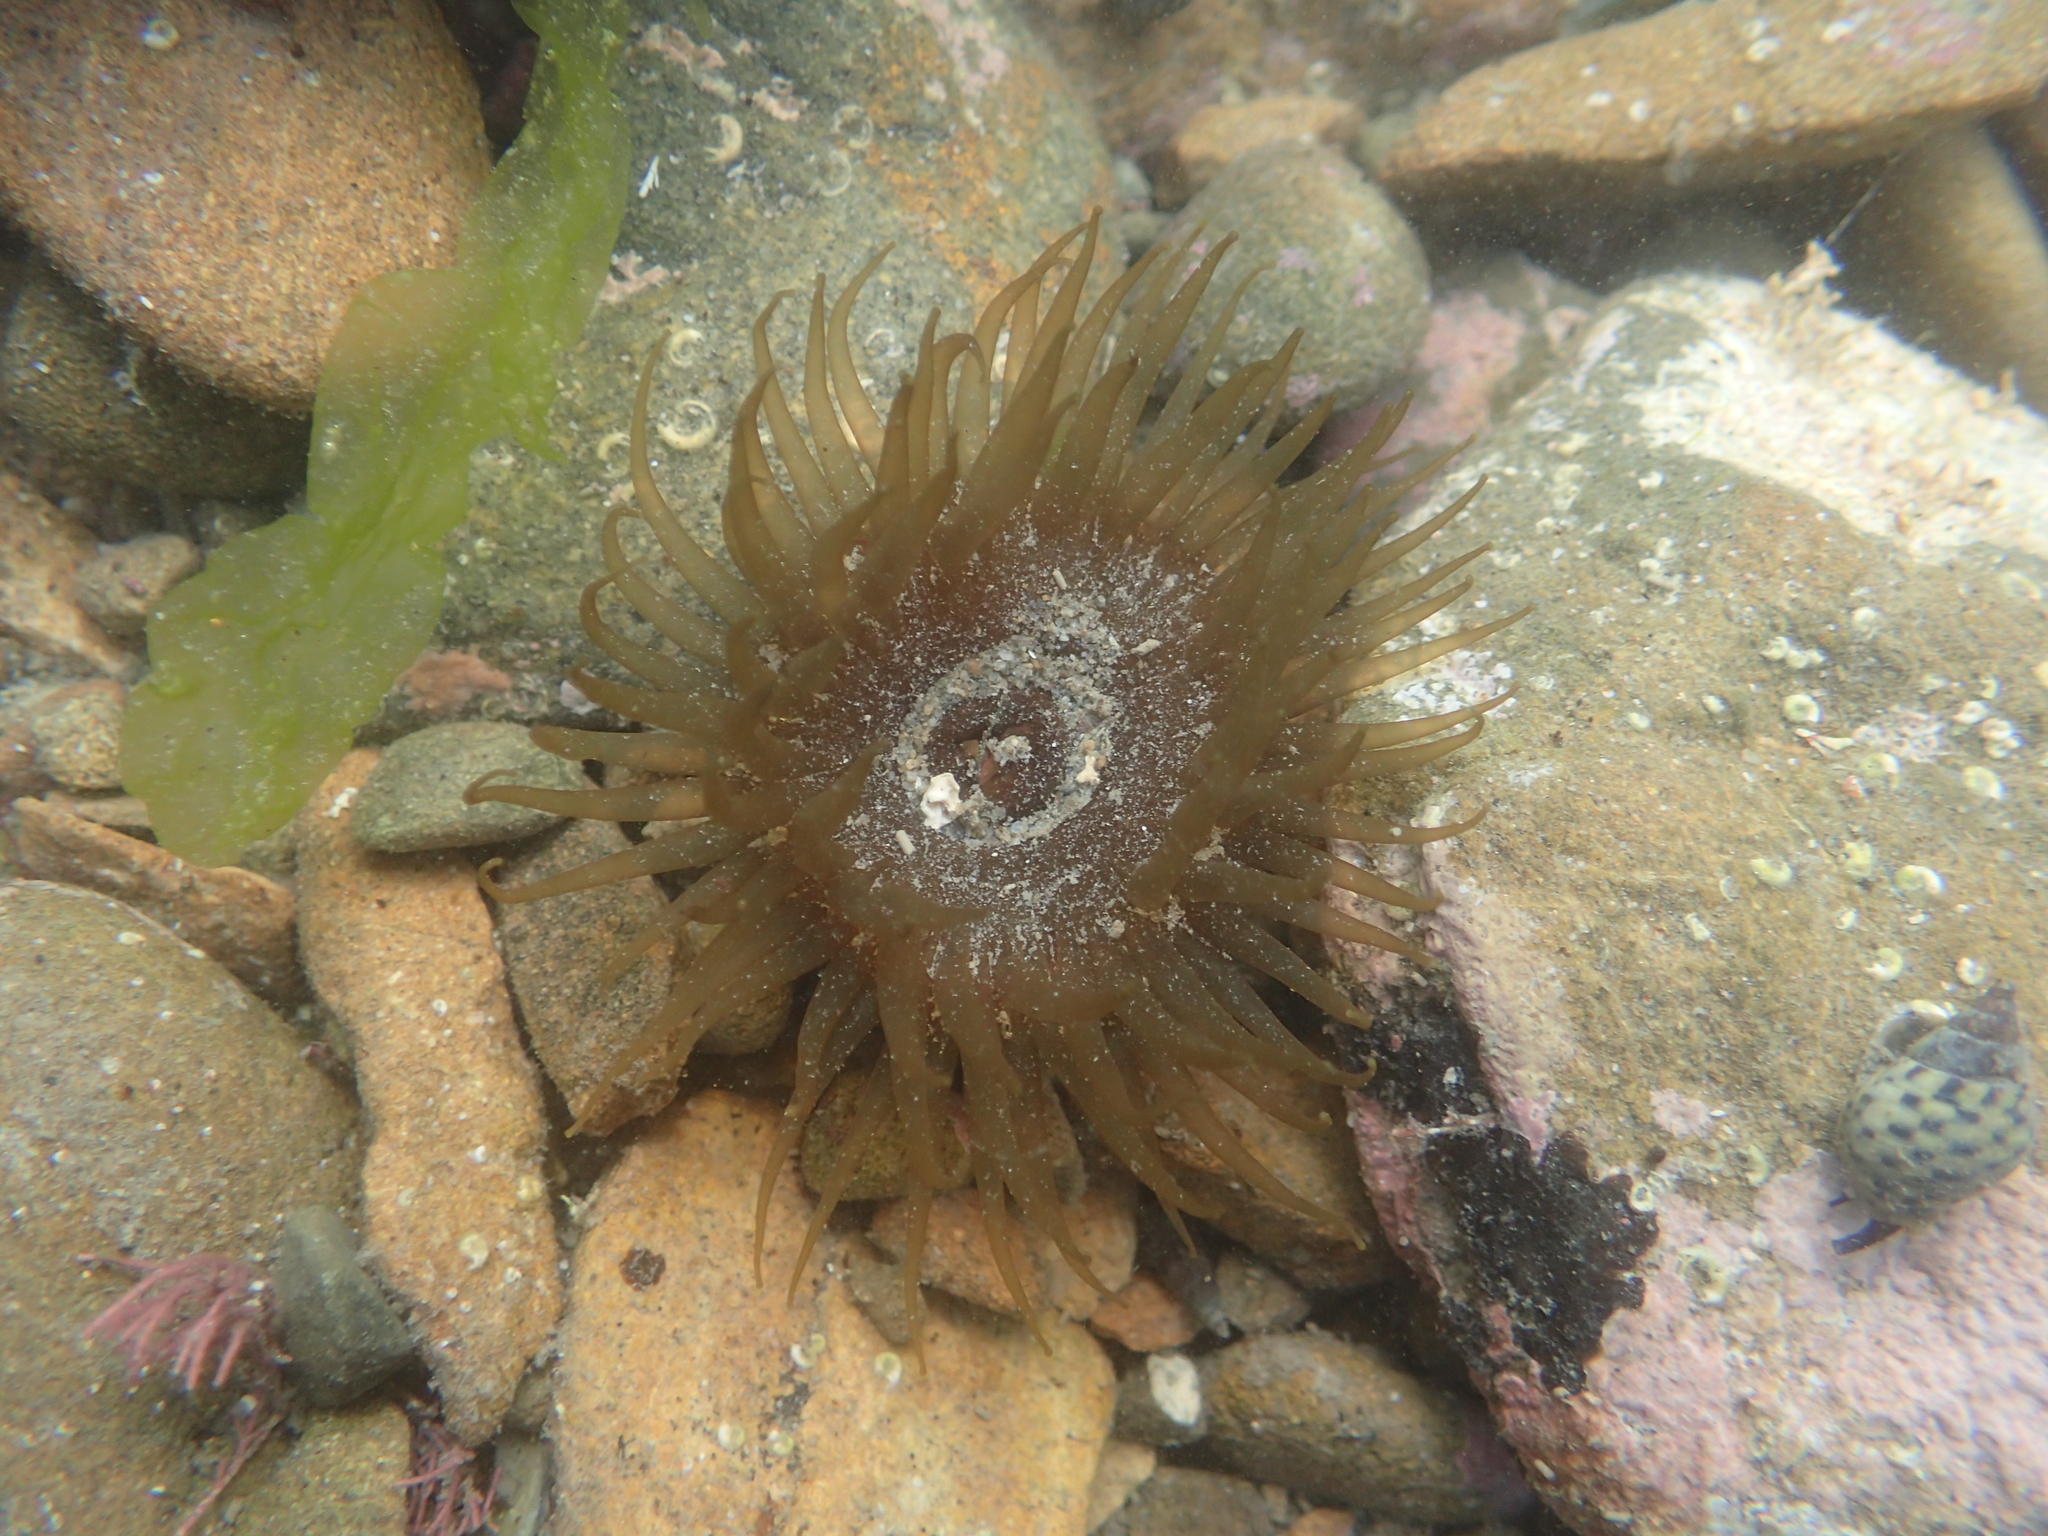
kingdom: Animalia
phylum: Cnidaria
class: Anthozoa
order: Actiniaria
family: Actiniidae
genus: Isactinia
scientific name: Isactinia olivacea
